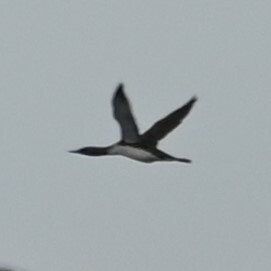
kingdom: Animalia
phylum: Chordata
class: Aves
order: Gaviiformes
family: Gaviidae
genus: Gavia
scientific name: Gavia stellata
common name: Red-throated loon
